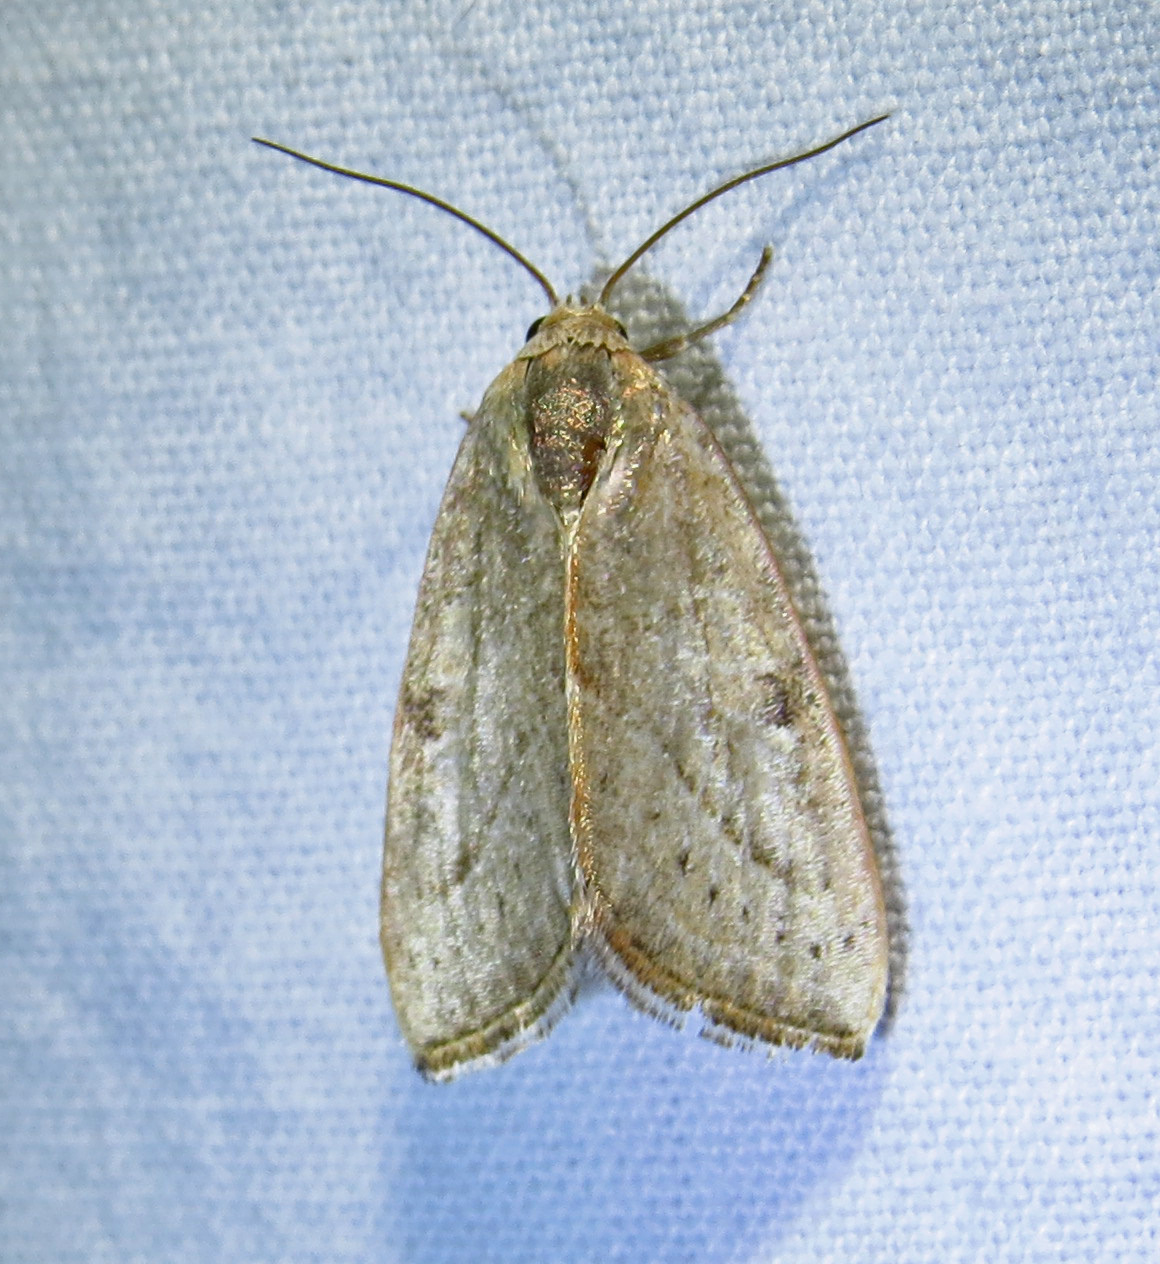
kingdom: Animalia
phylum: Arthropoda
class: Insecta
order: Lepidoptera
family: Noctuidae
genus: Galgula
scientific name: Galgula partita
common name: Wedgeling
